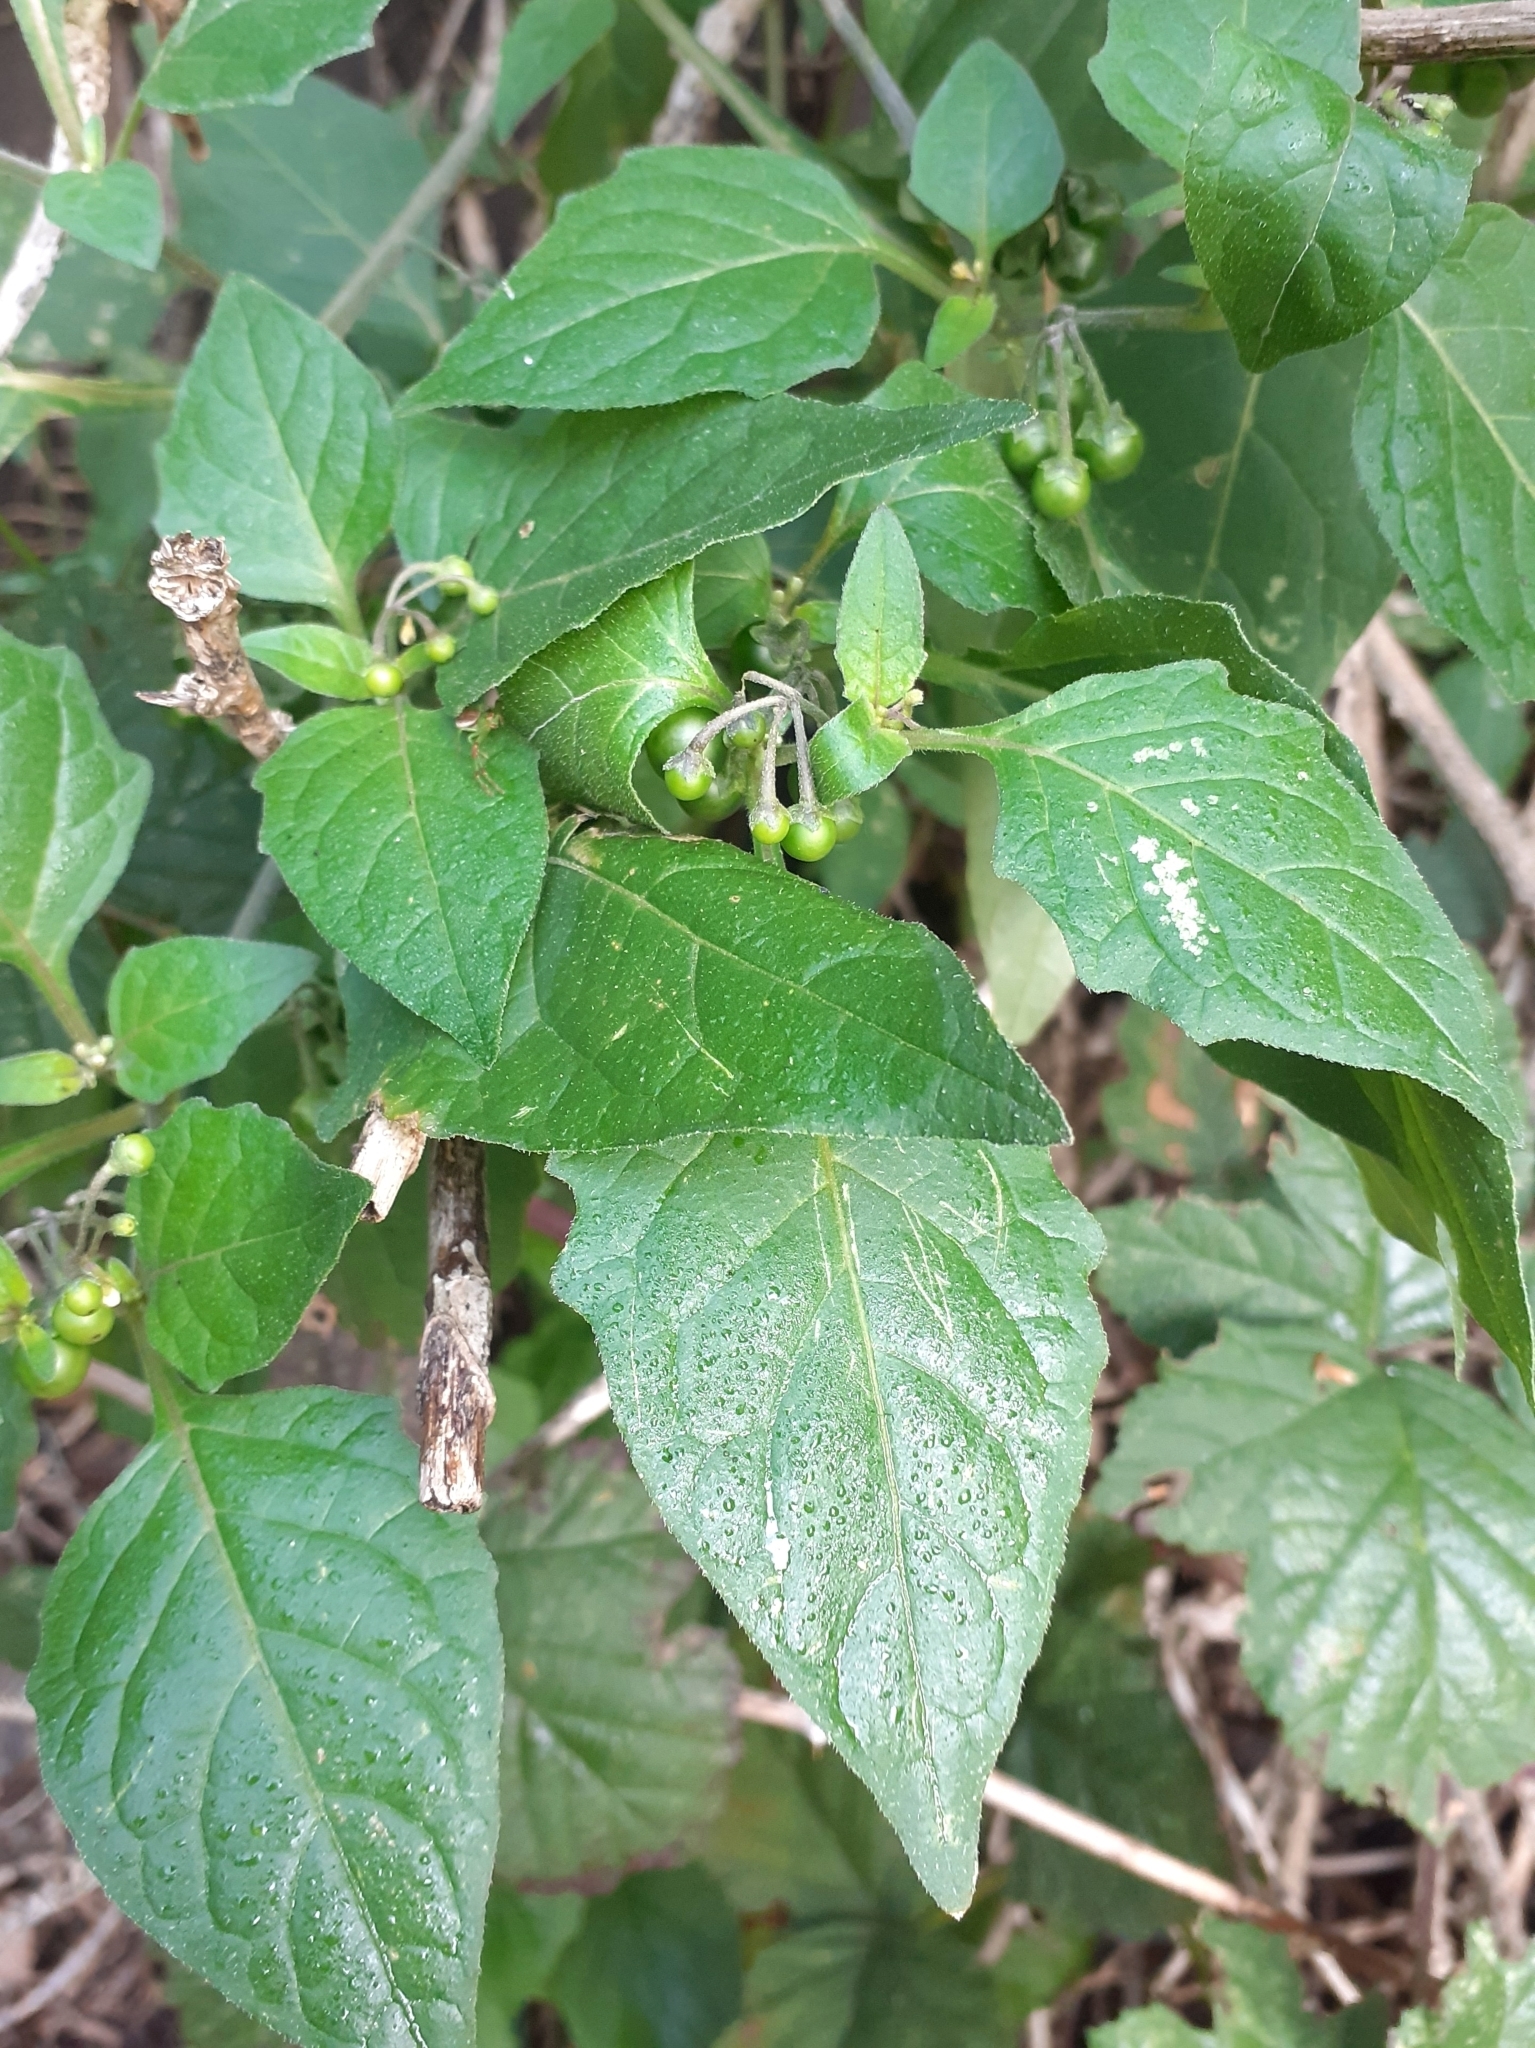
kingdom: Plantae
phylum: Tracheophyta
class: Magnoliopsida
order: Solanales
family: Solanaceae
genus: Solanum
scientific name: Solanum nigrum
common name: Black nightshade
